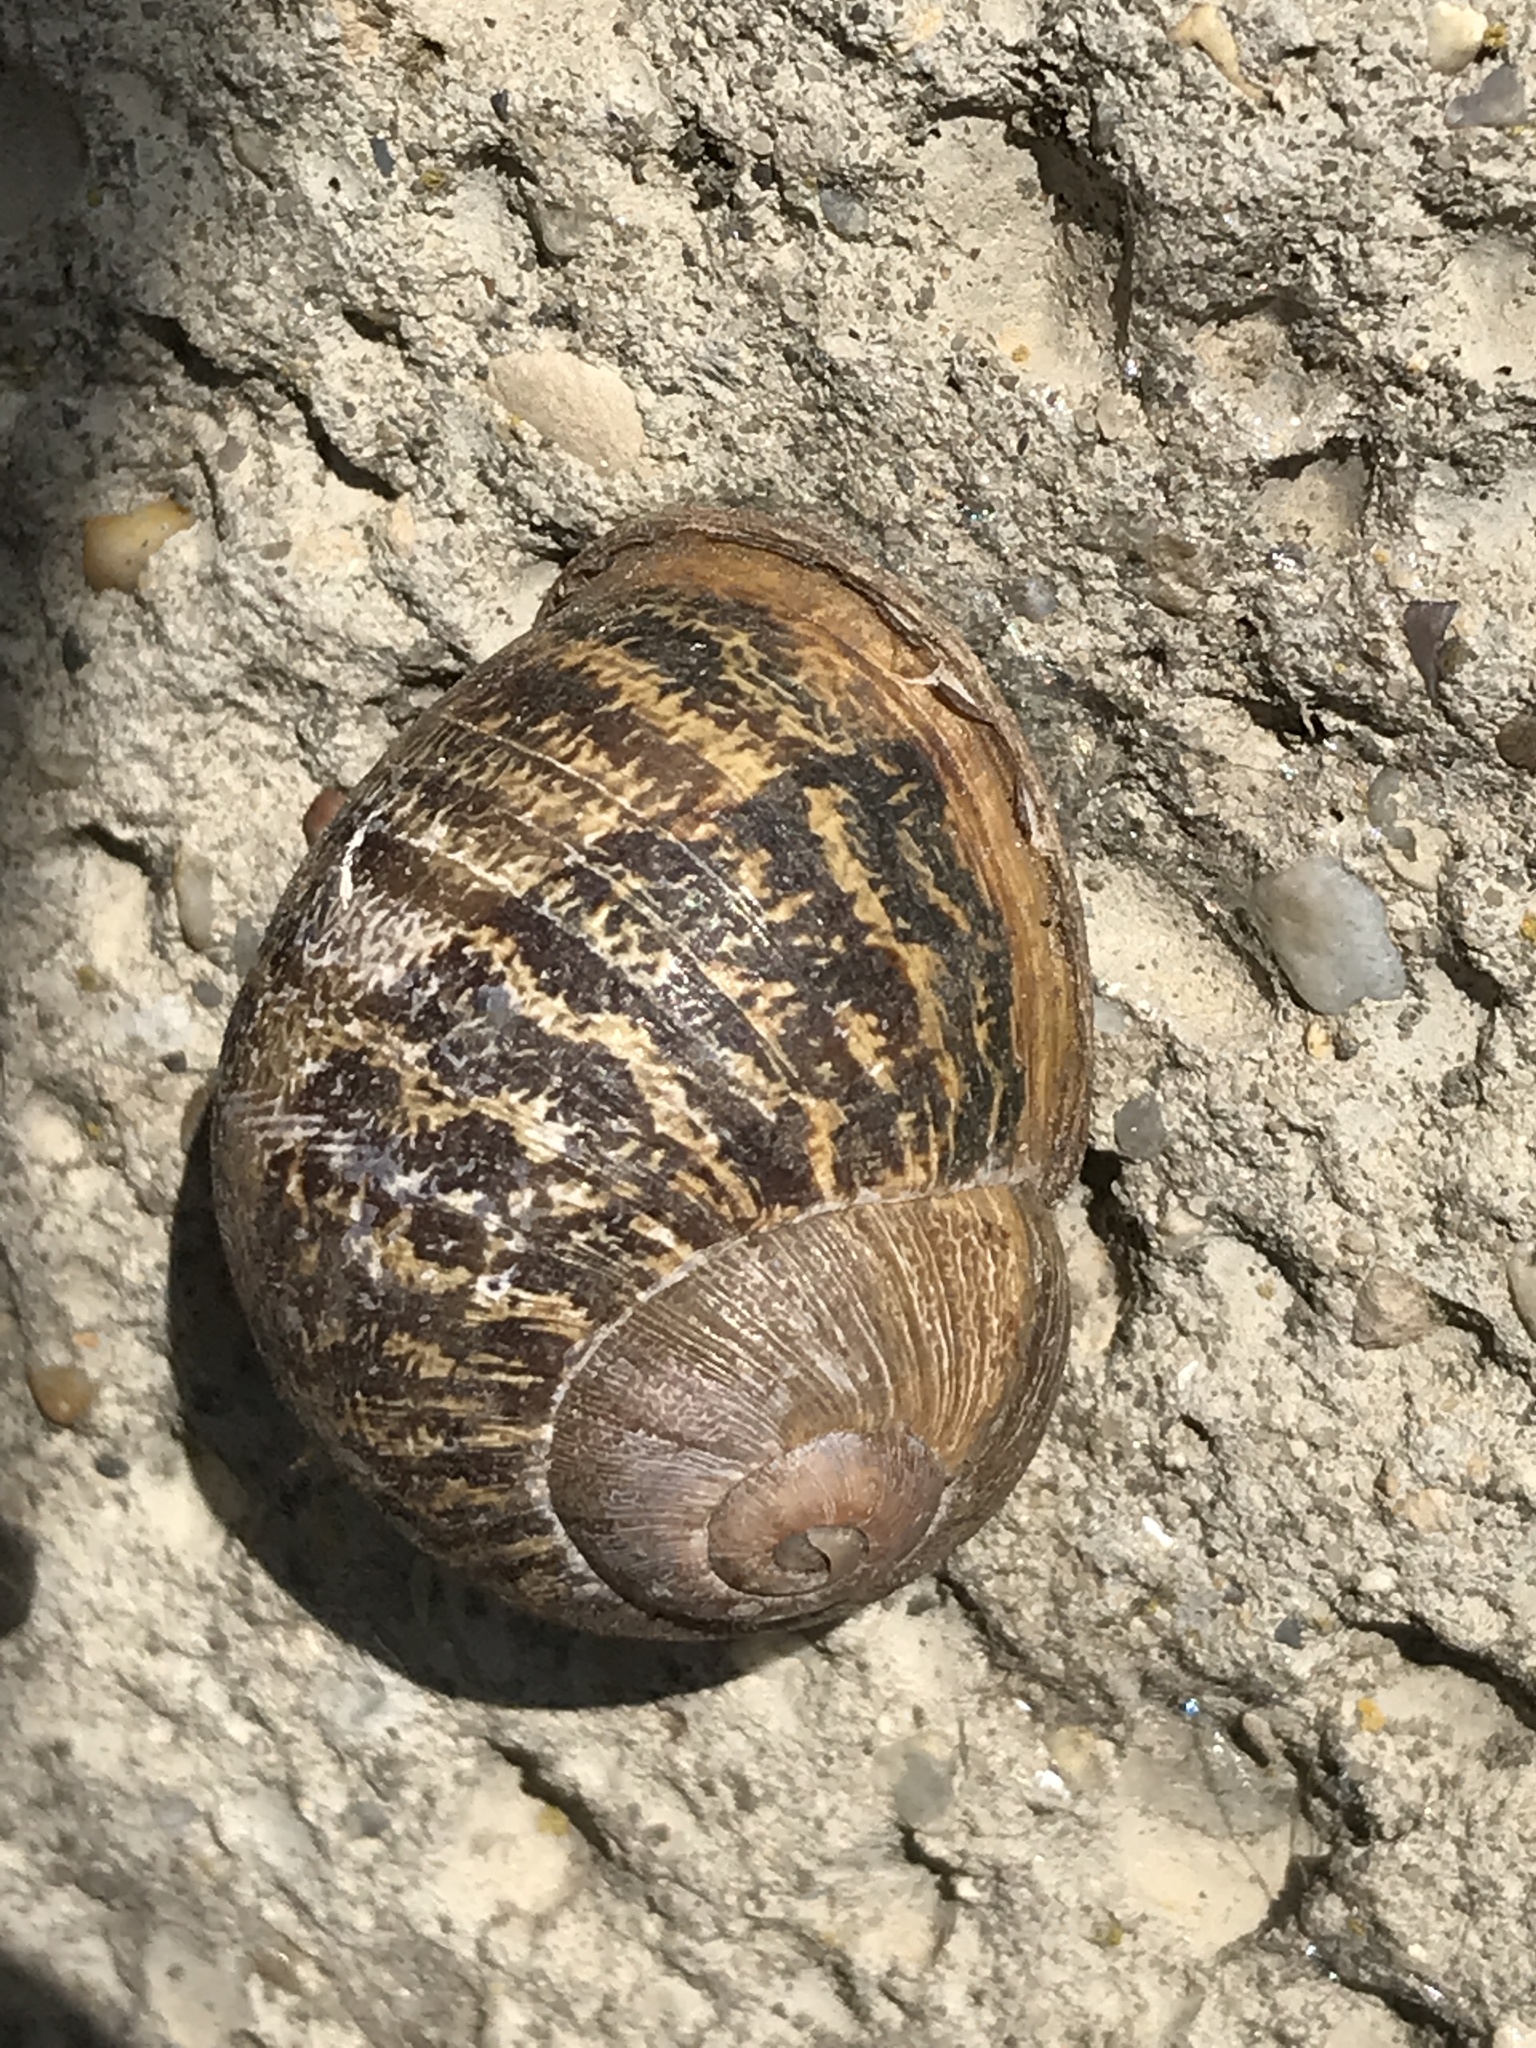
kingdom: Animalia
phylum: Mollusca
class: Gastropoda
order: Stylommatophora
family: Helicidae
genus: Cornu
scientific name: Cornu aspersum
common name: Brown garden snail
